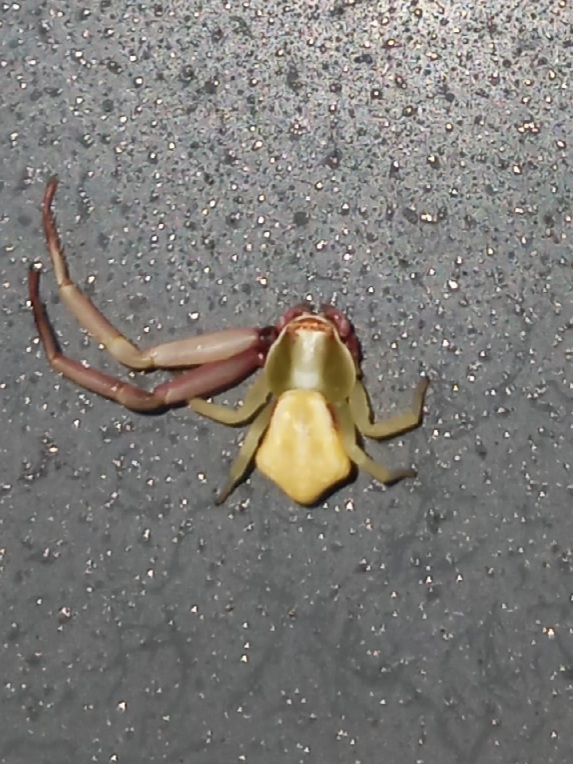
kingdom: Animalia
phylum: Arthropoda
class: Arachnida
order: Araneae
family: Thomisidae
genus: Misumenoides
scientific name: Misumenoides formosipes
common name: White-banded crab spider
